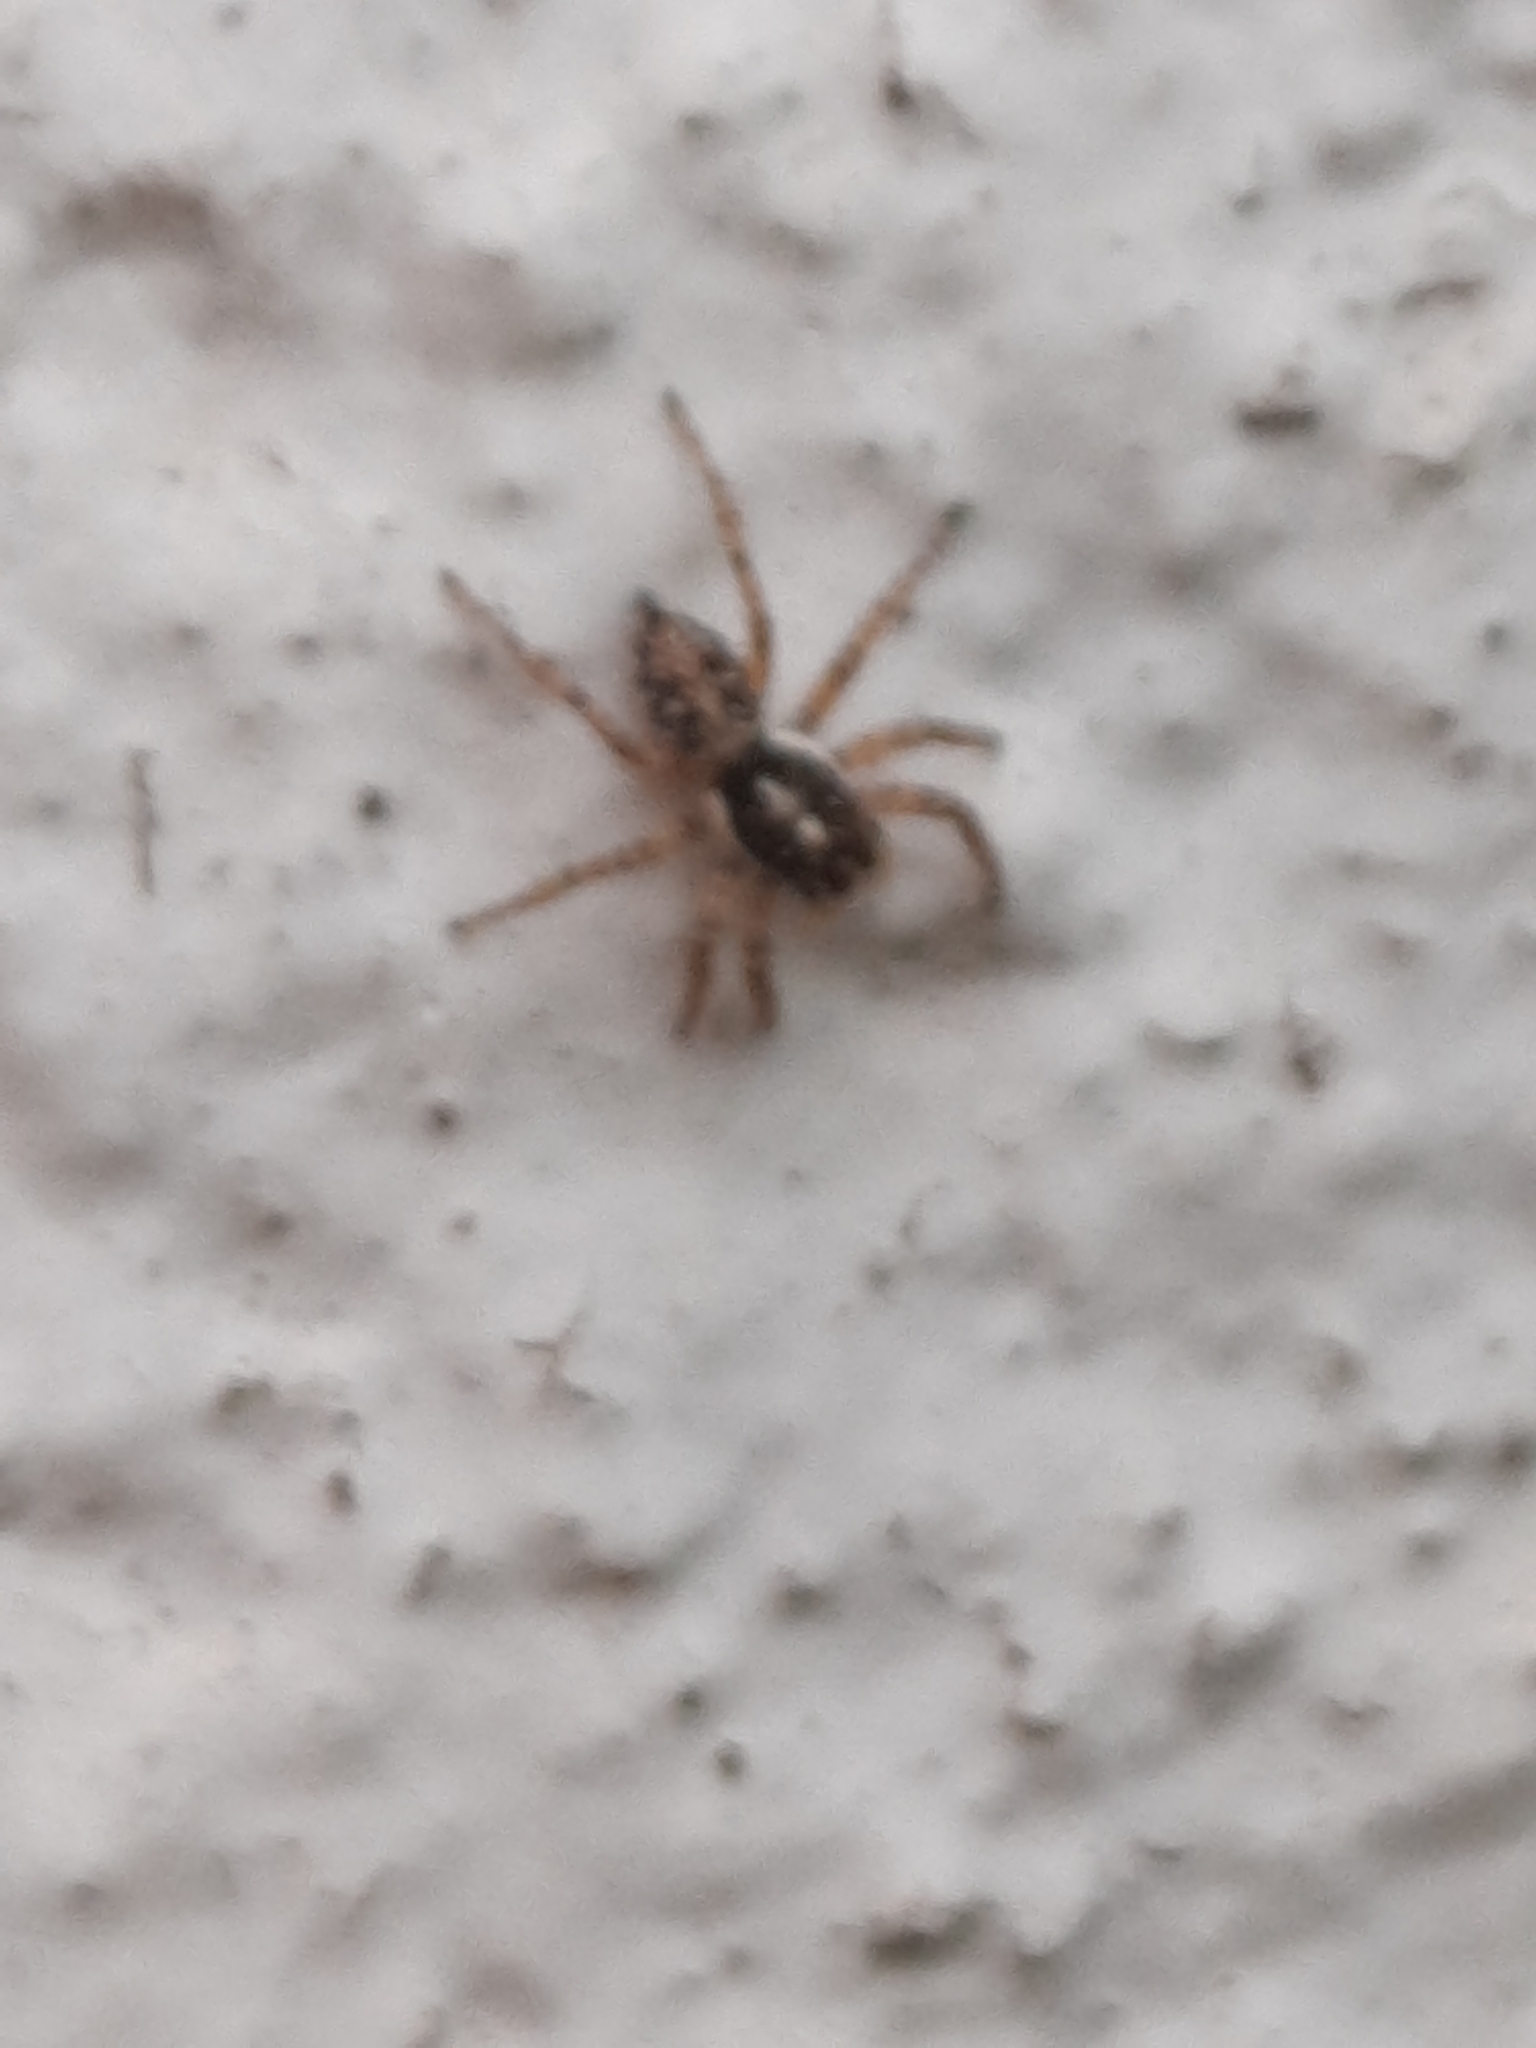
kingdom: Animalia
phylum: Arthropoda
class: Arachnida
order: Araneae
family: Salticidae
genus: Menemerus
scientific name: Menemerus semilimbatus
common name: Jumping spider
